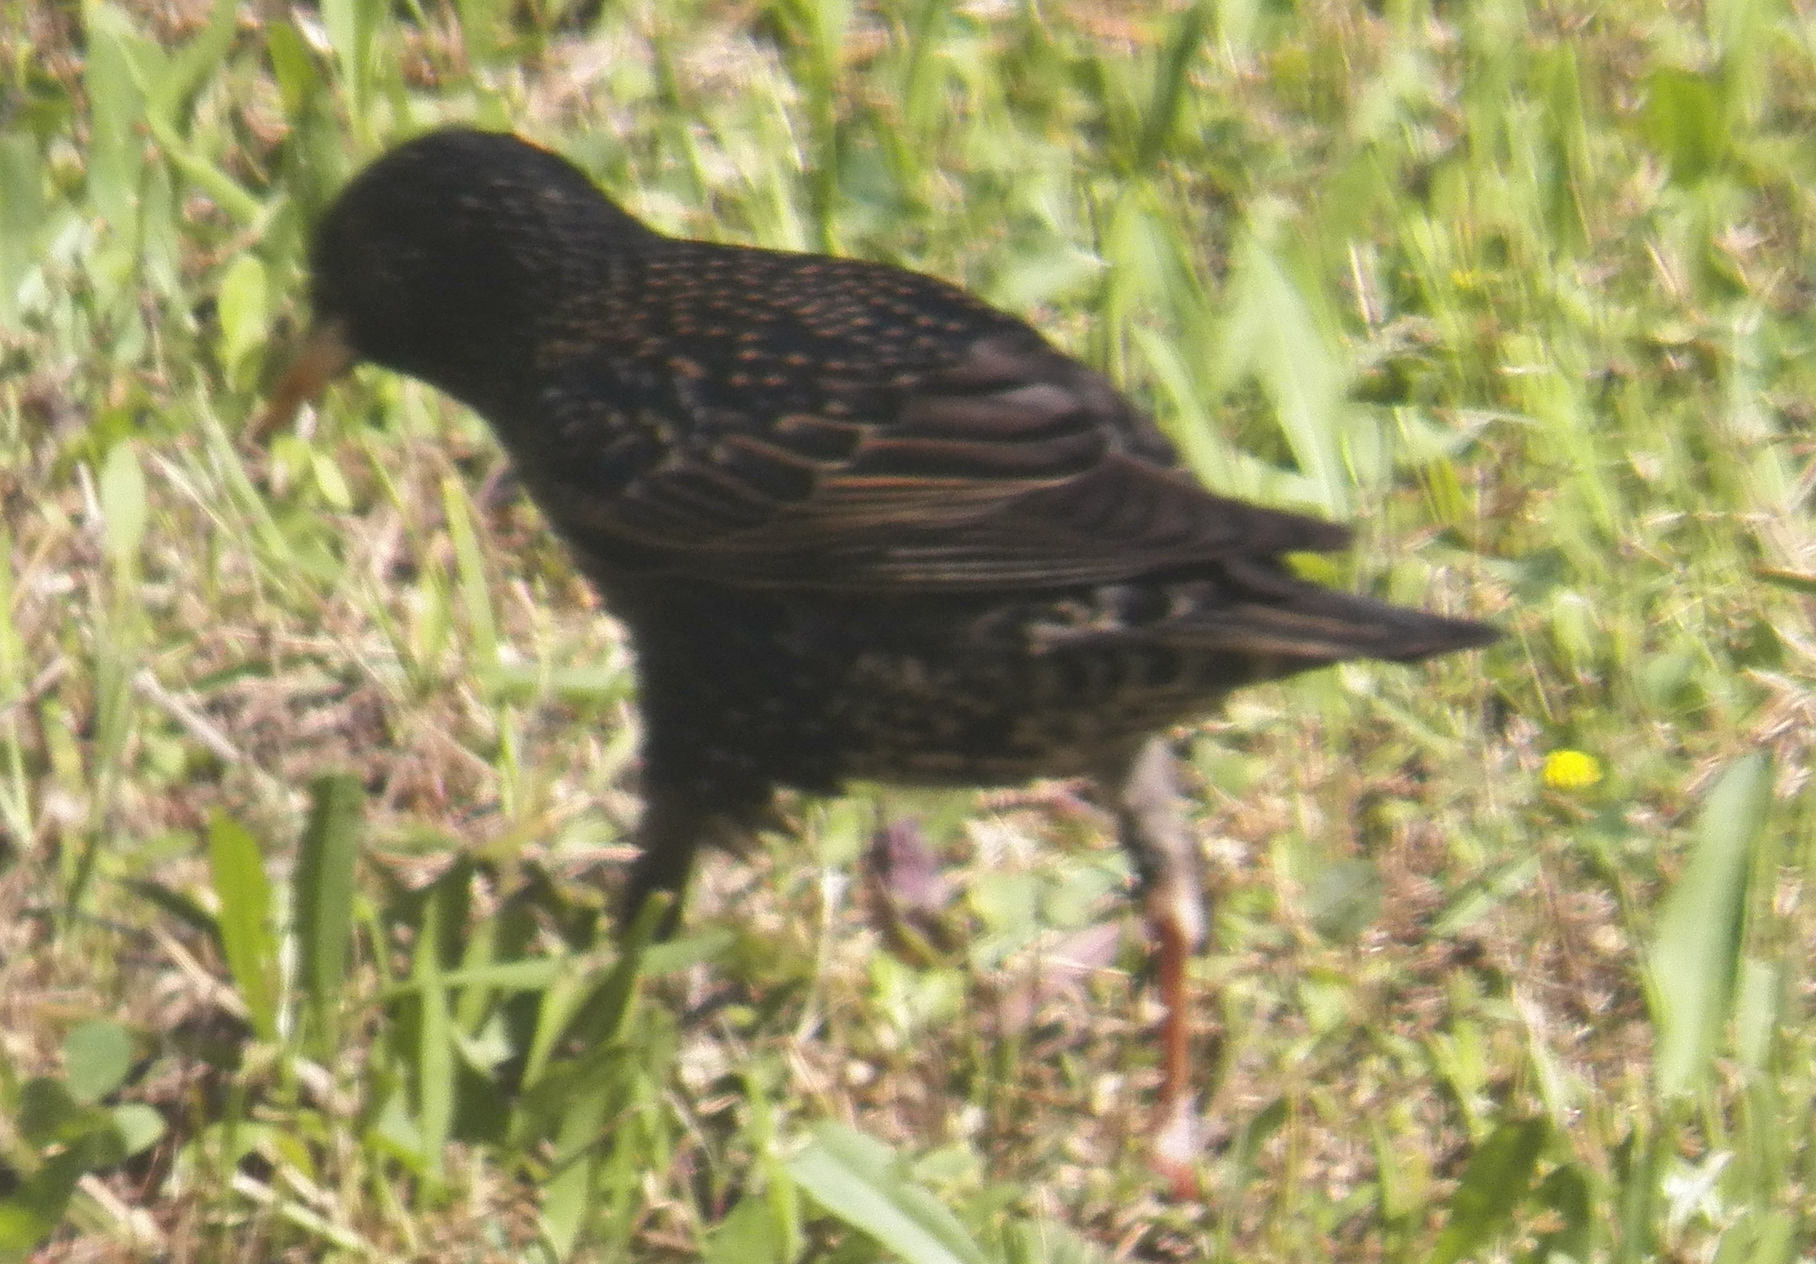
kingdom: Animalia
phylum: Chordata
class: Aves
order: Passeriformes
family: Sturnidae
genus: Sturnus
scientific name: Sturnus vulgaris
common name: Common starling
